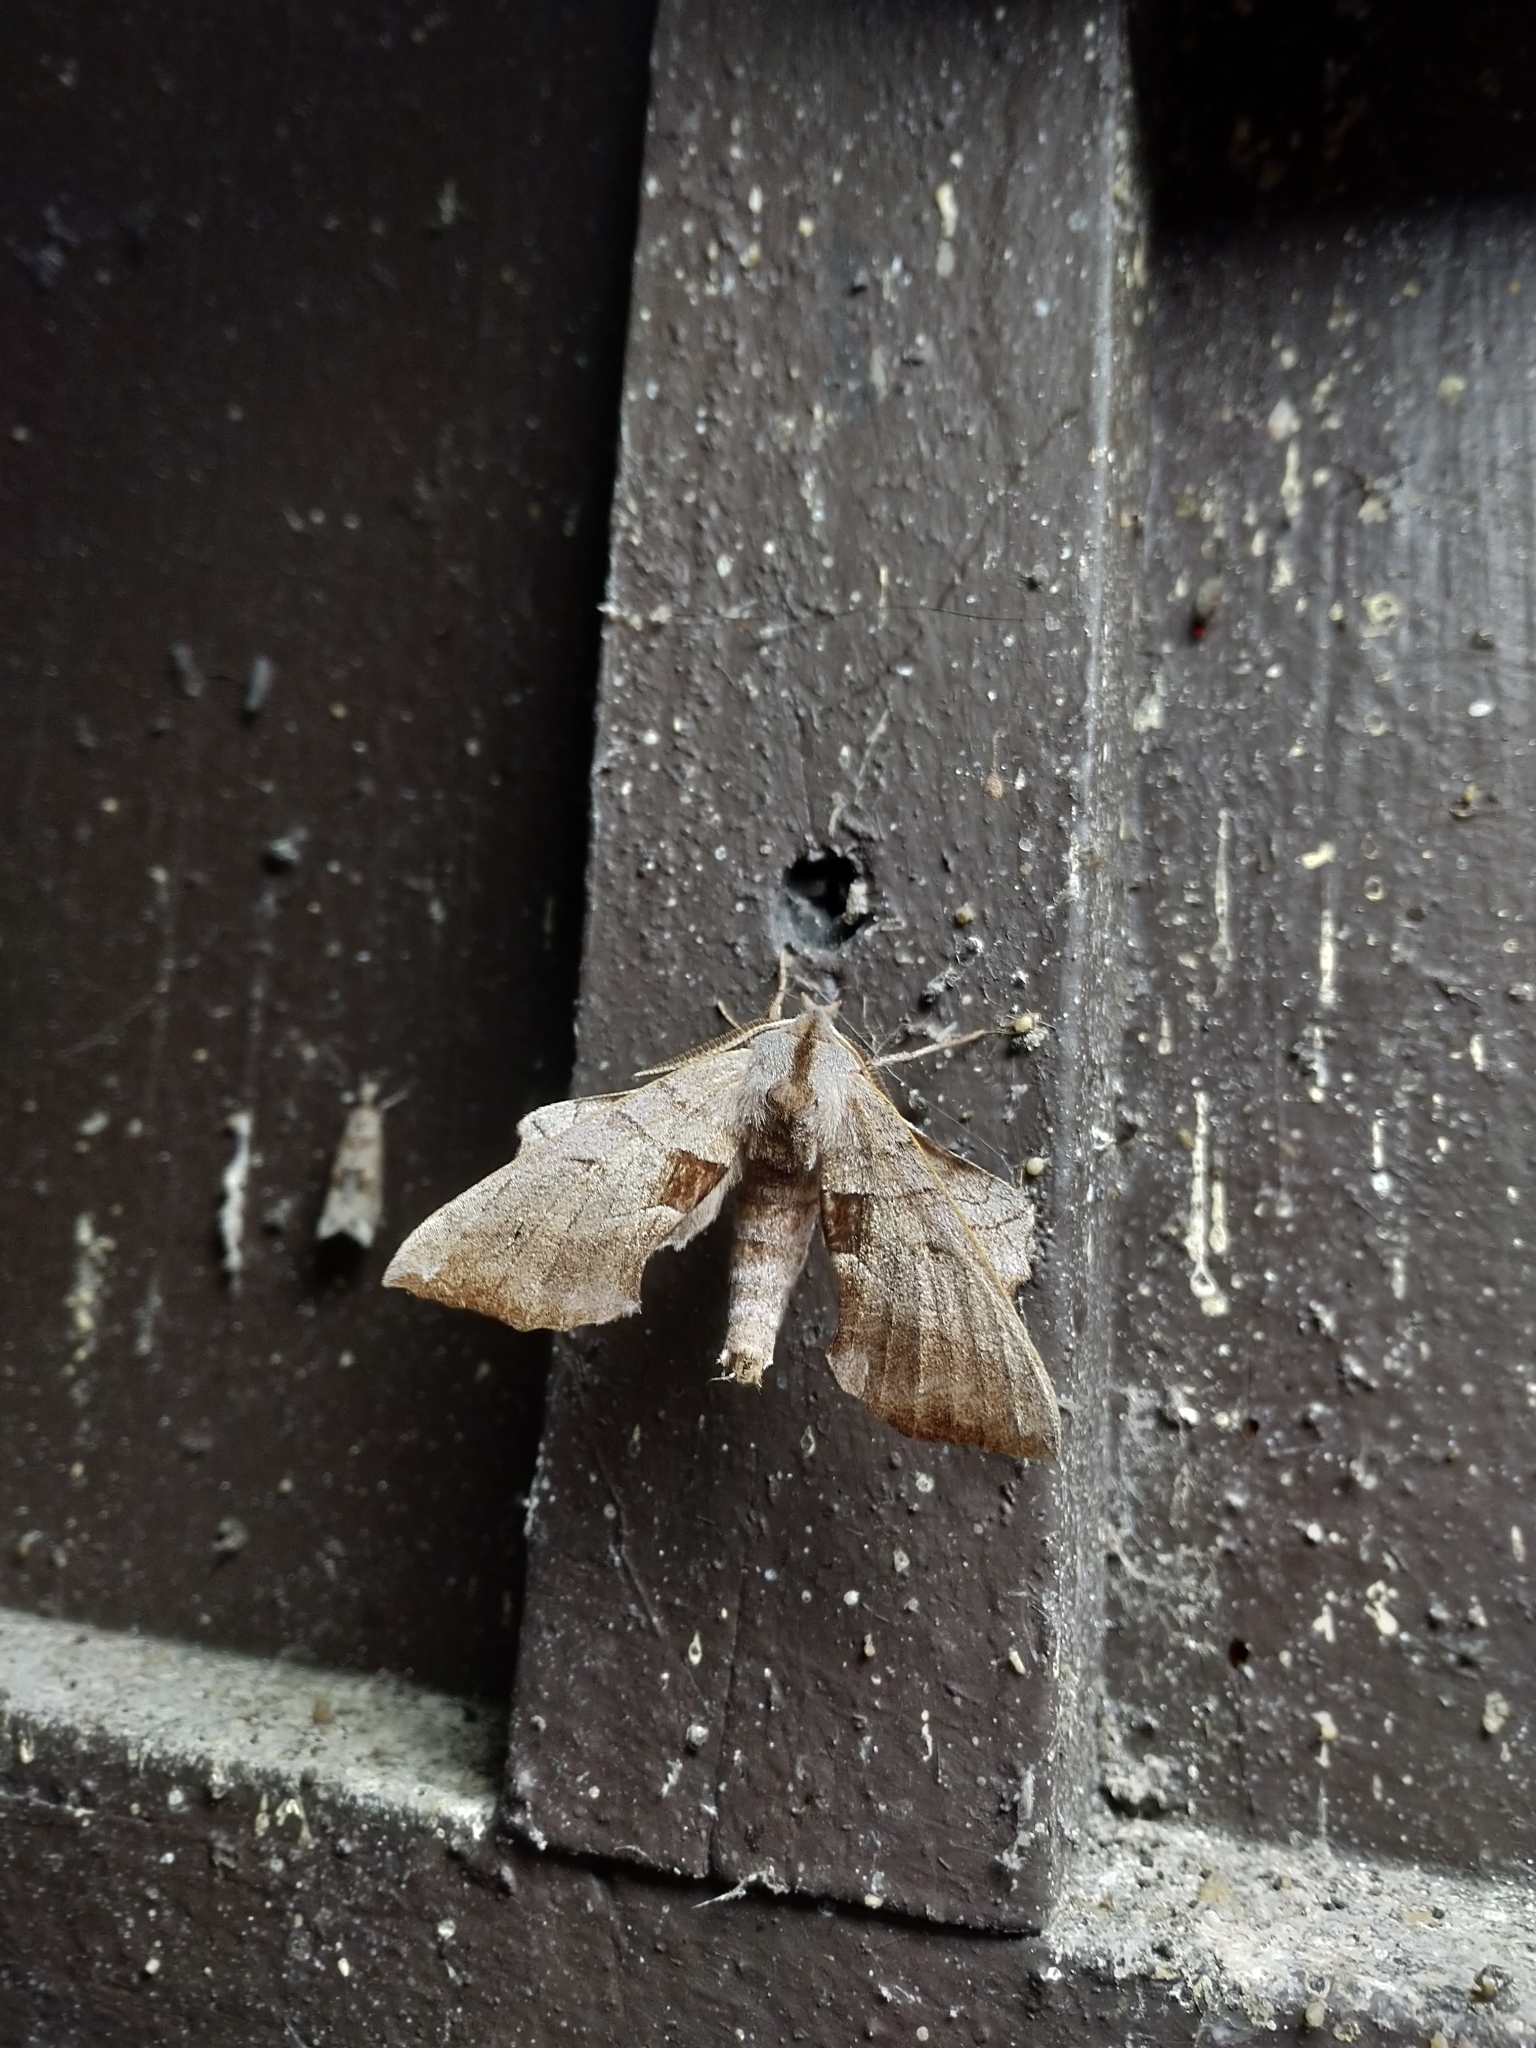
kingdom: Animalia
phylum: Arthropoda
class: Insecta
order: Lepidoptera
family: Sphingidae
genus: Amorpha
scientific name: Amorpha juglandis
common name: Walnut sphinx
